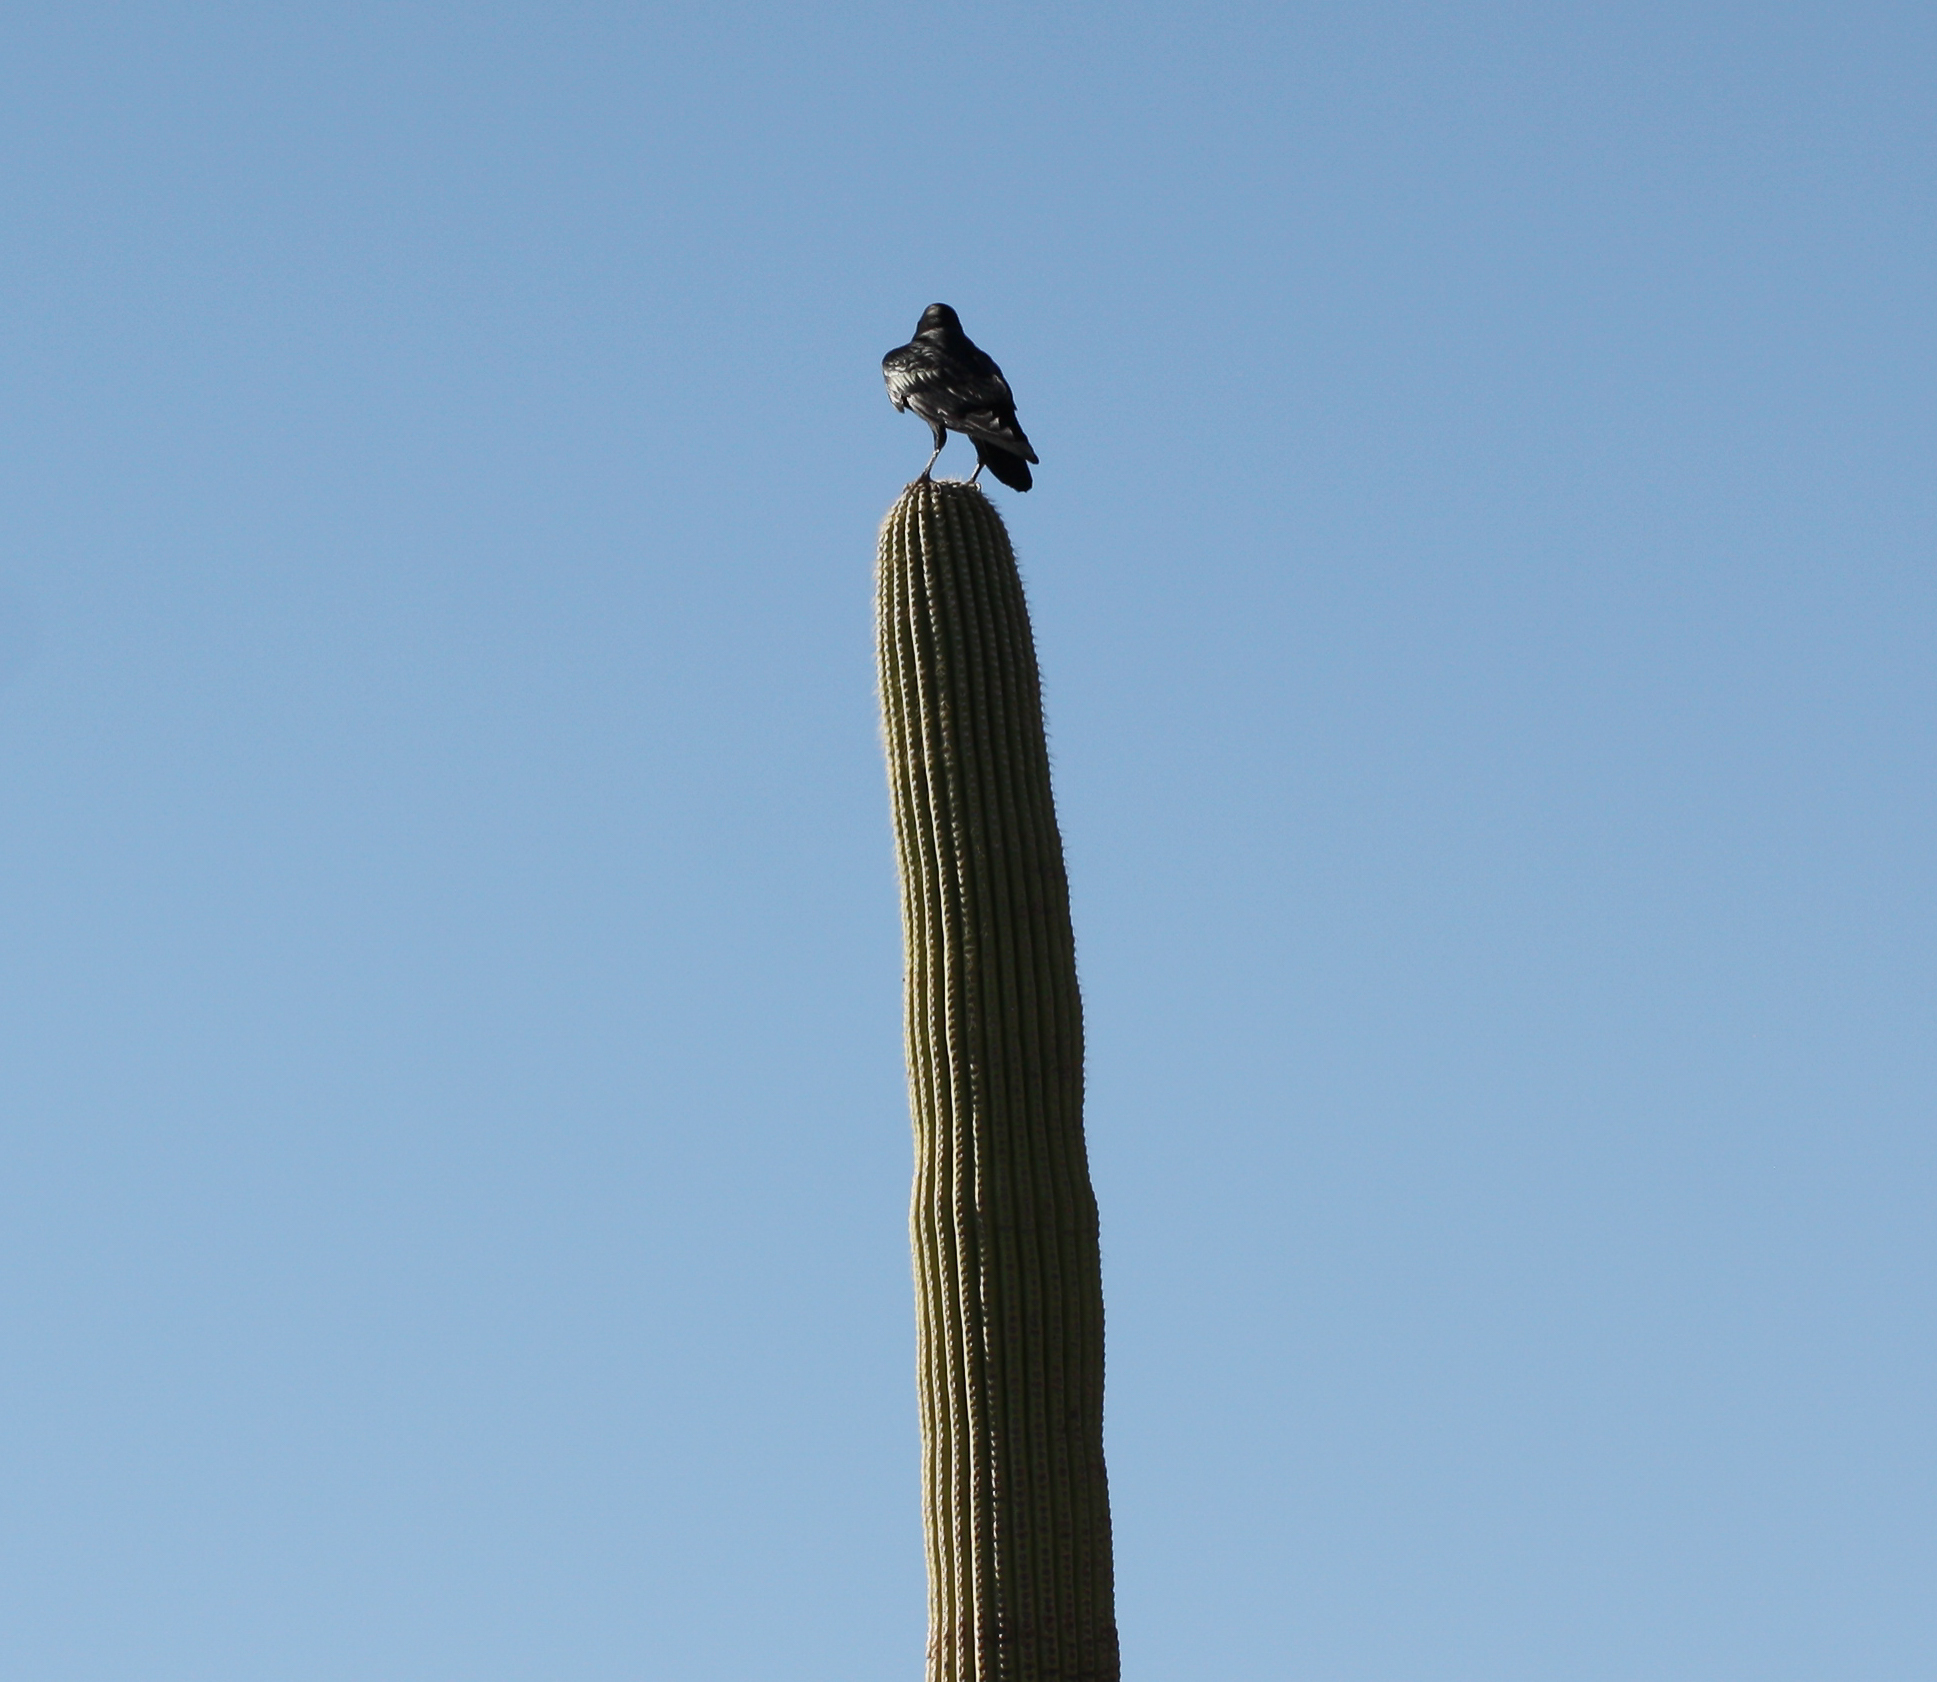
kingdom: Animalia
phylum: Chordata
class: Aves
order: Passeriformes
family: Corvidae
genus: Corvus
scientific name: Corvus corax
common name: Common raven
